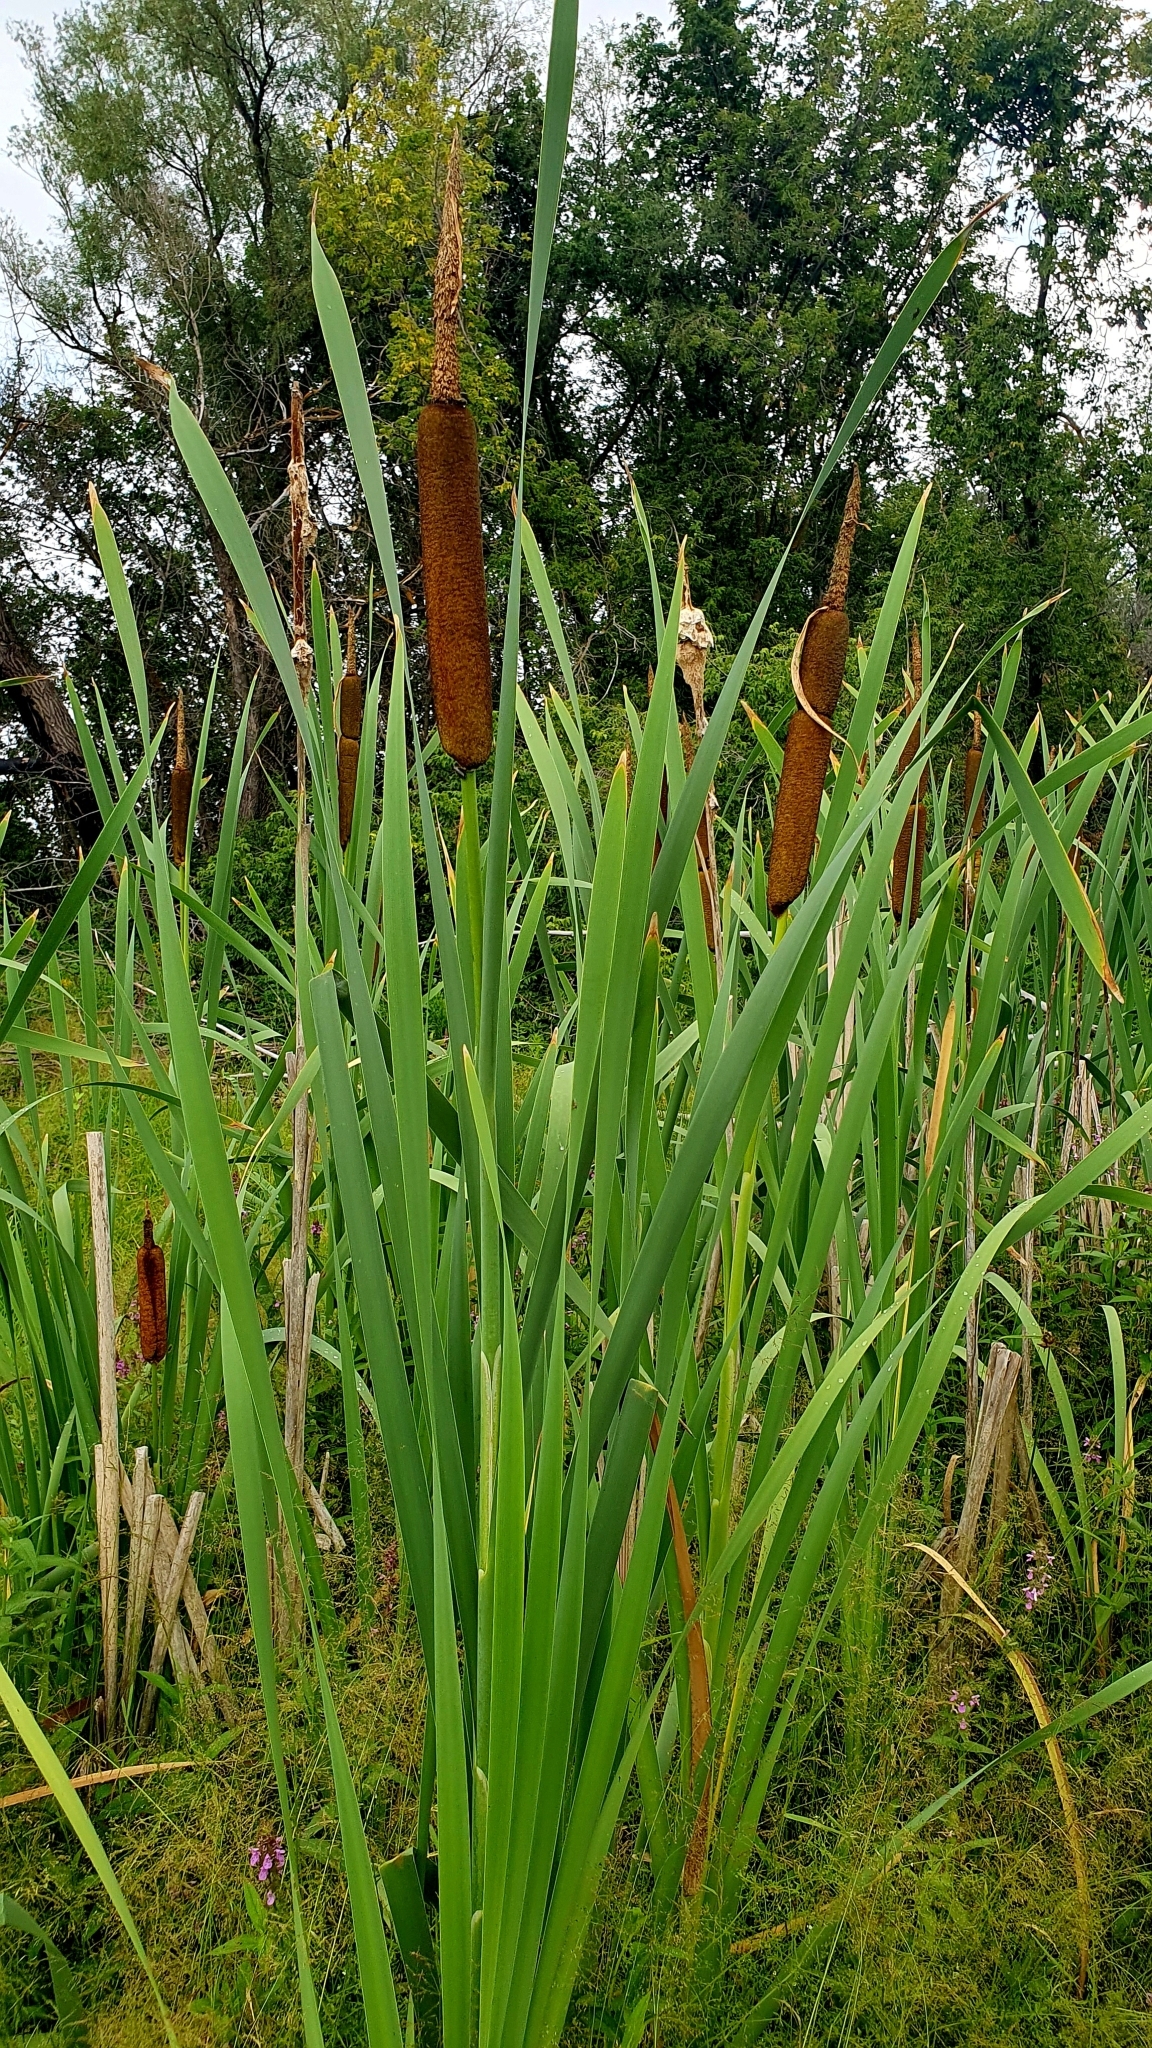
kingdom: Plantae
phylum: Tracheophyta
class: Liliopsida
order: Poales
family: Typhaceae
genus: Typha
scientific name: Typha latifolia
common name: Broadleaf cattail
